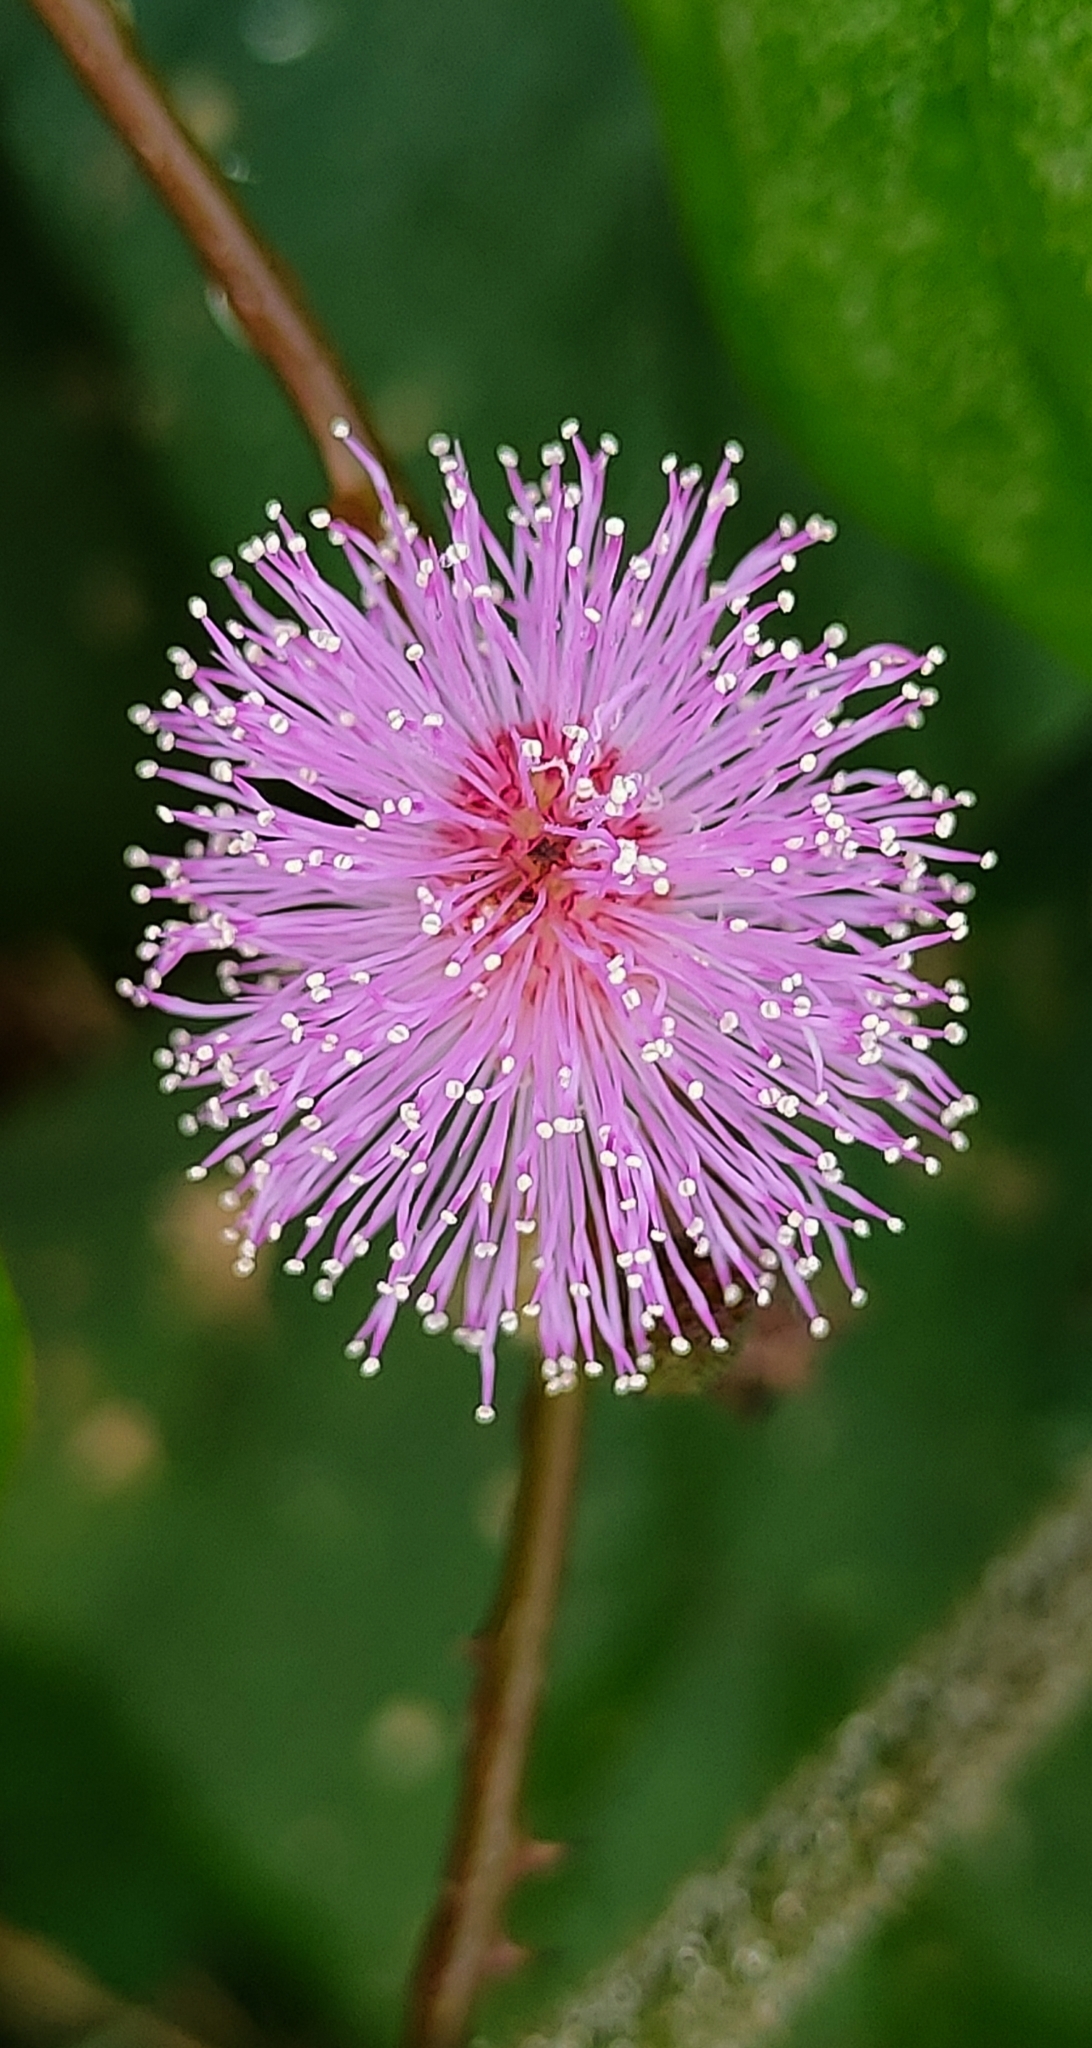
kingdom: Plantae
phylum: Tracheophyta
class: Magnoliopsida
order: Fabales
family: Fabaceae
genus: Mimosa
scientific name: Mimosa pudica
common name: Sensitive plant
